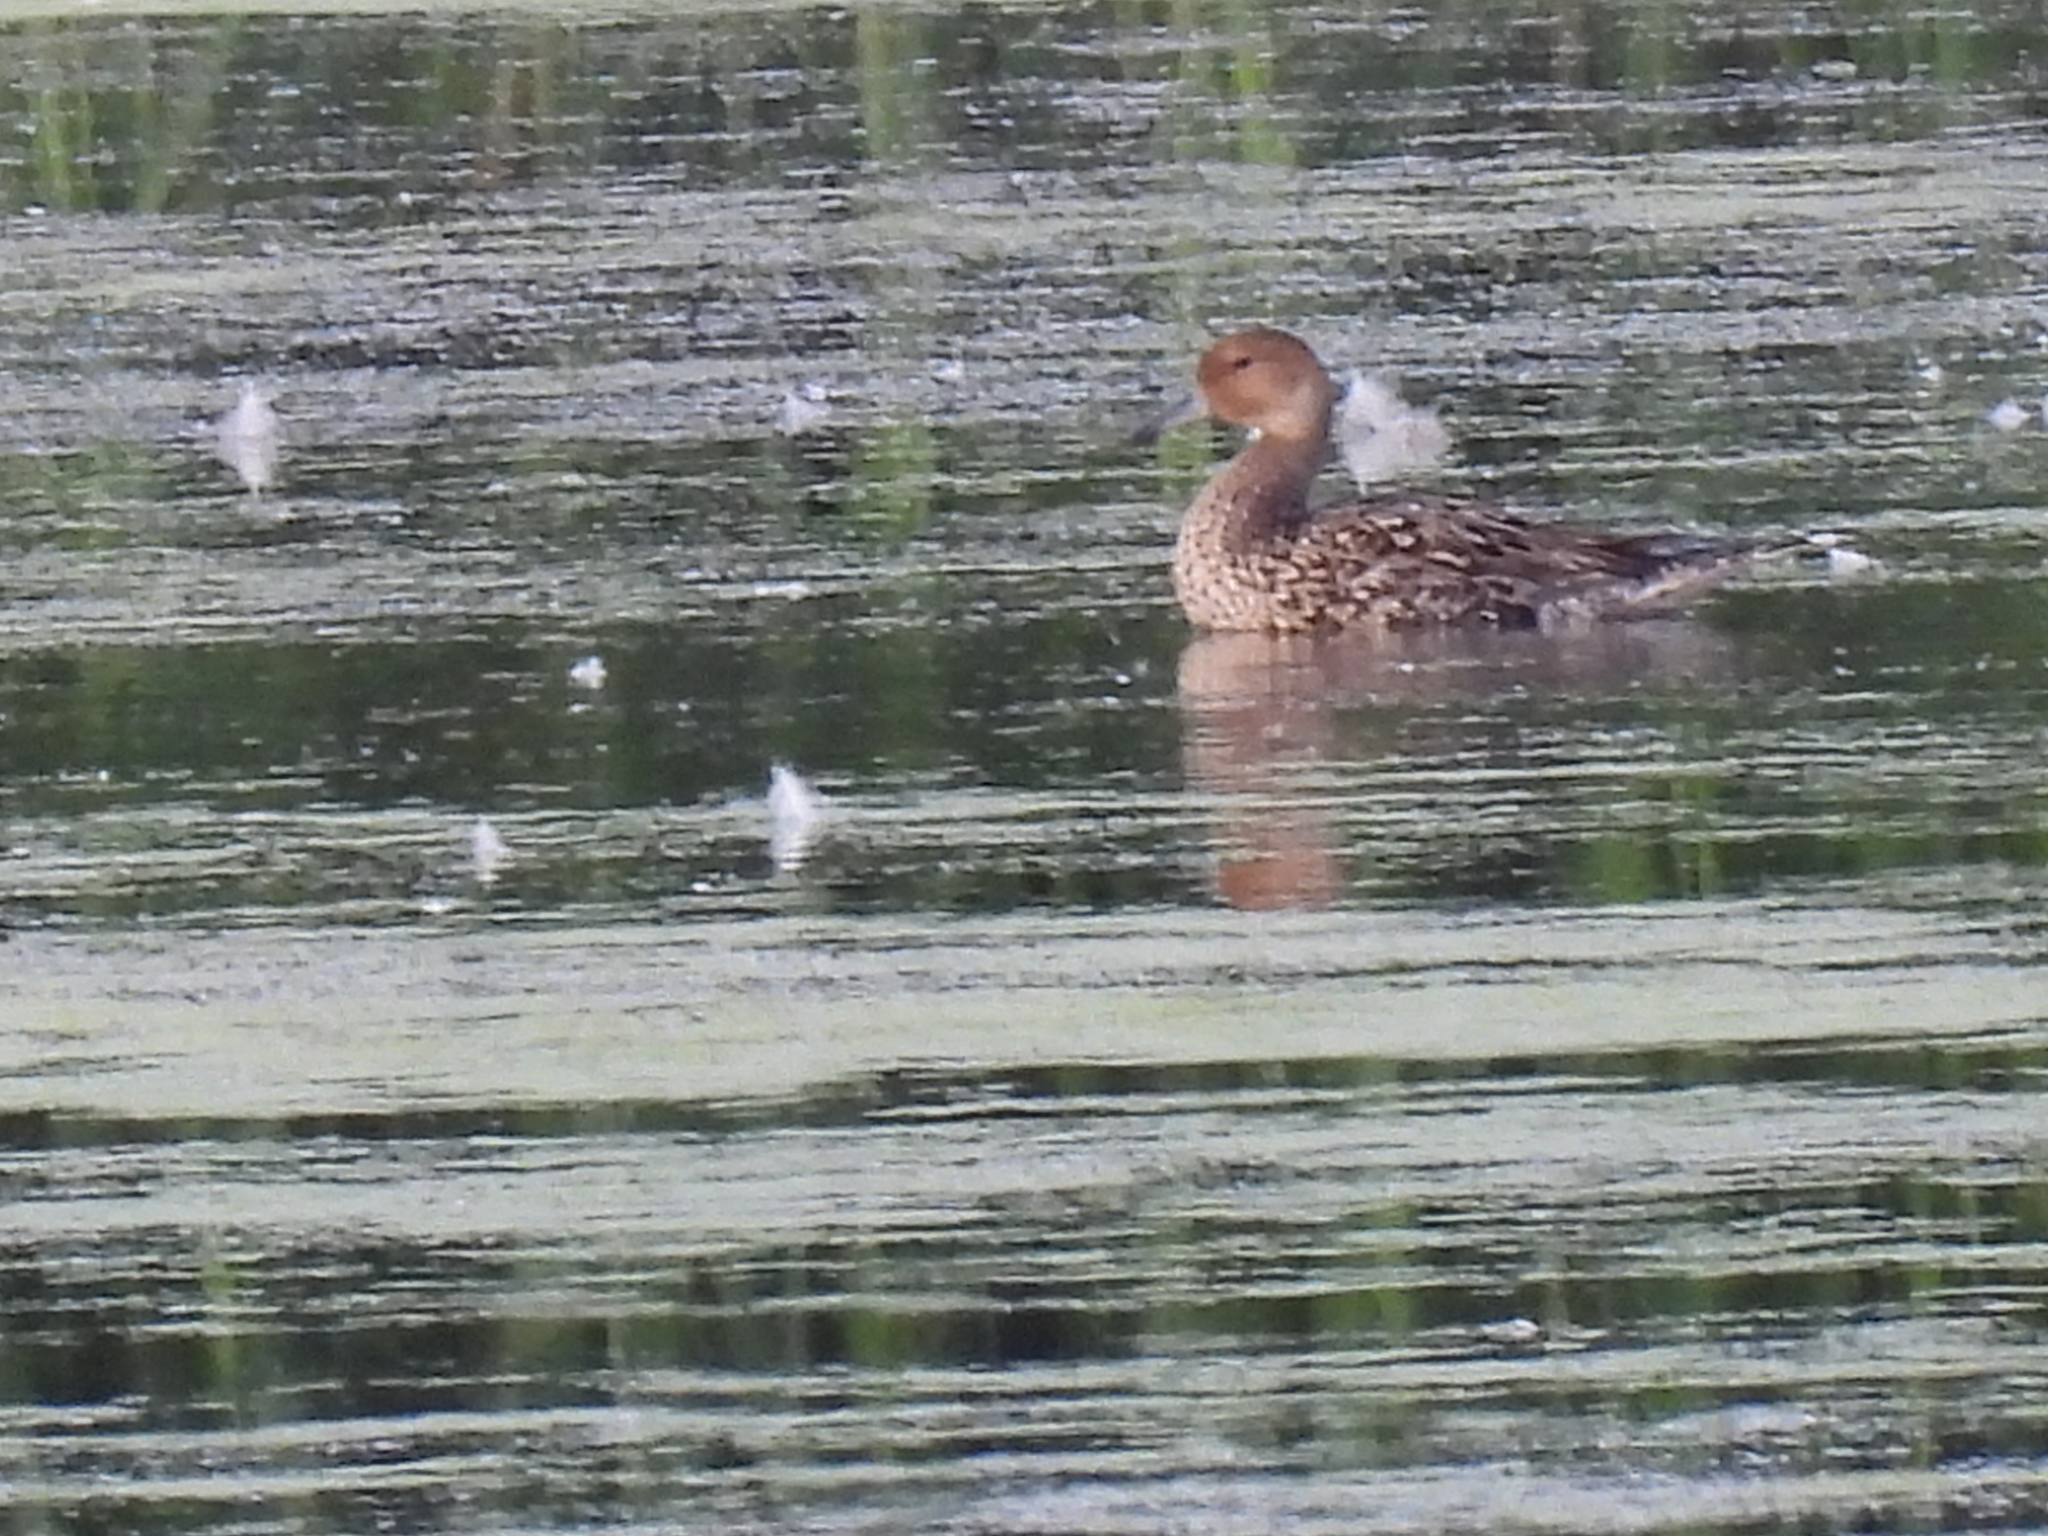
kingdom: Animalia
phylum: Chordata
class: Aves
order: Anseriformes
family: Anatidae
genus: Anas
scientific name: Anas acuta
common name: Northern pintail
